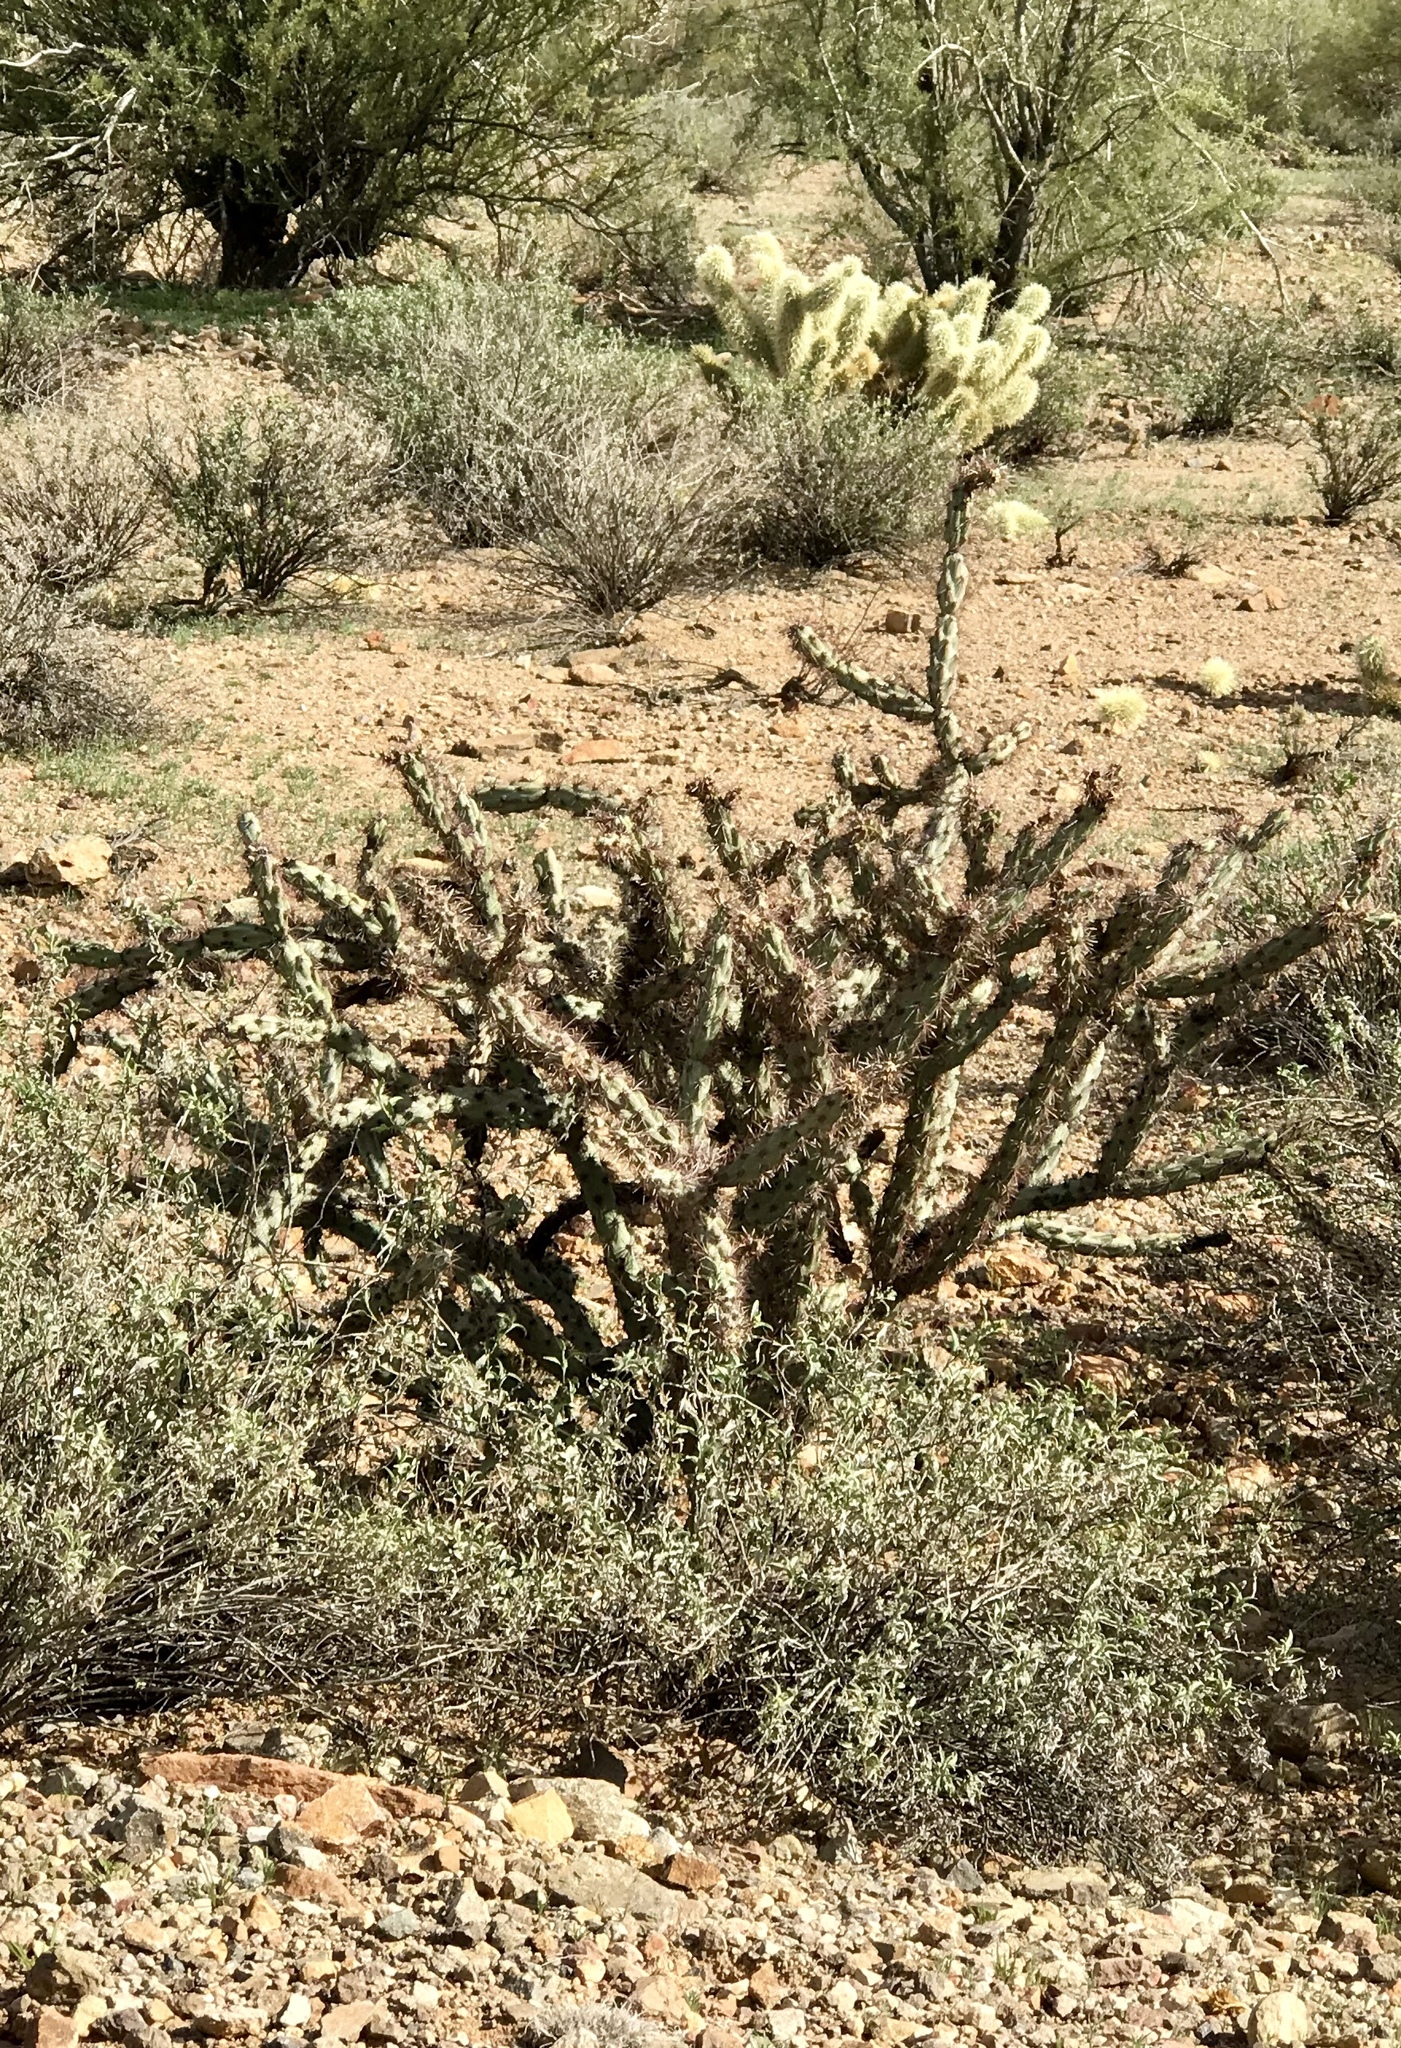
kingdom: Plantae
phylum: Tracheophyta
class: Magnoliopsida
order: Caryophyllales
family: Cactaceae
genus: Cylindropuntia
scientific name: Cylindropuntia acanthocarpa
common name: Buckhorn cholla
